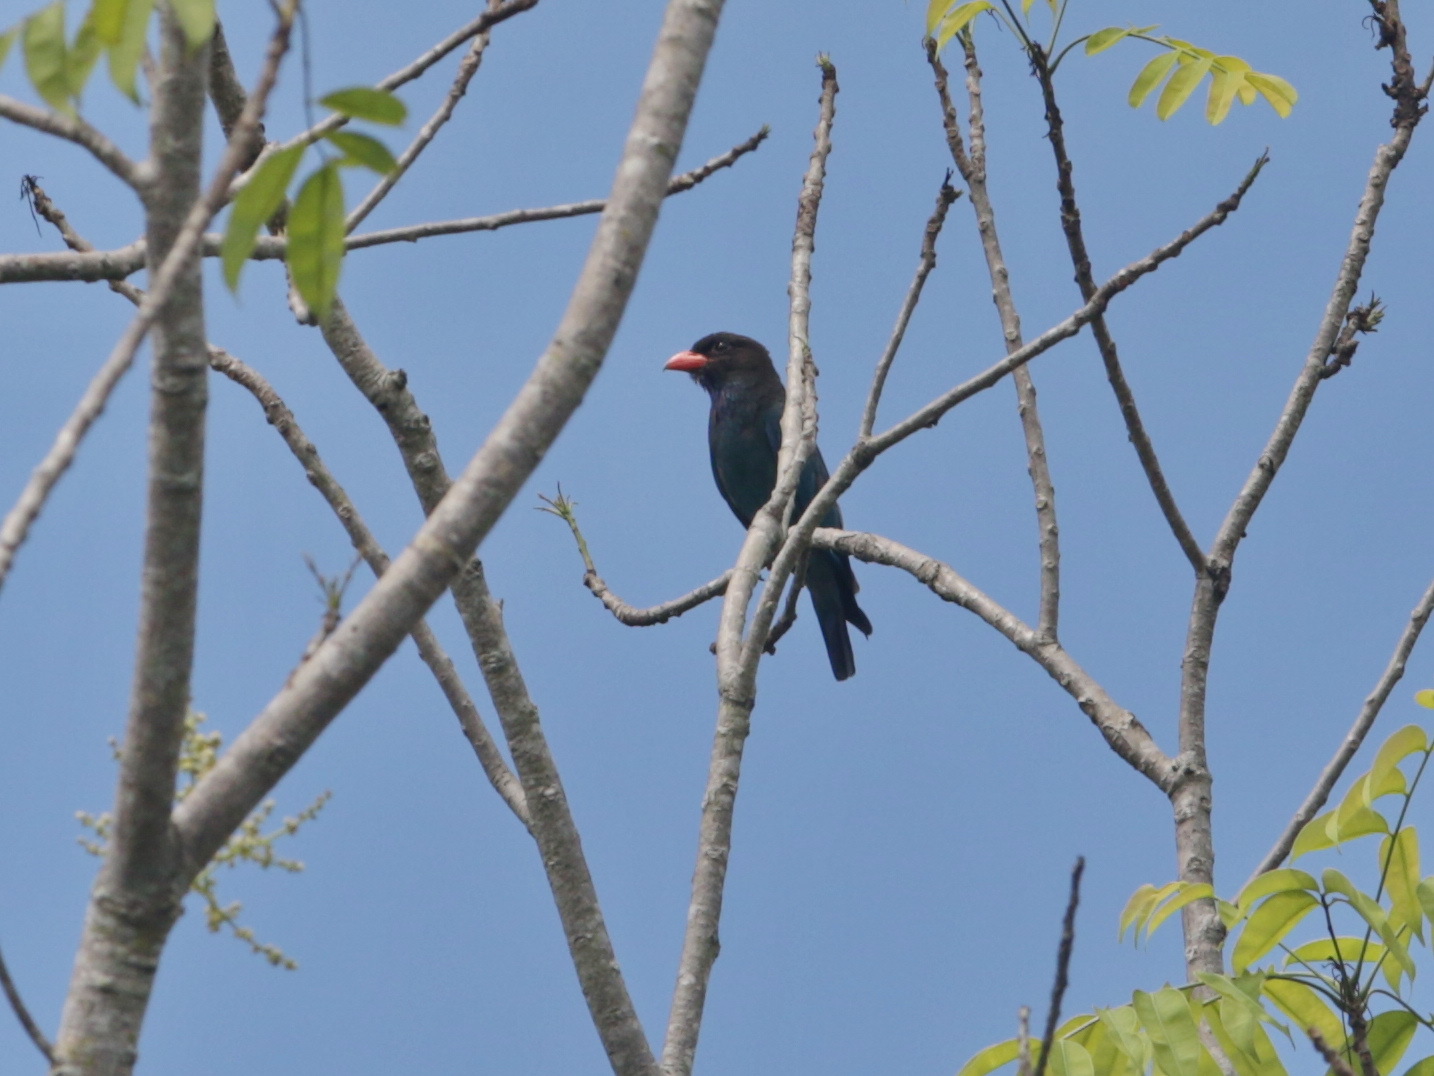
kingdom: Animalia
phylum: Chordata
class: Aves
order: Coraciiformes
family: Coraciidae
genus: Eurystomus
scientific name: Eurystomus orientalis
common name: Oriental dollarbird
